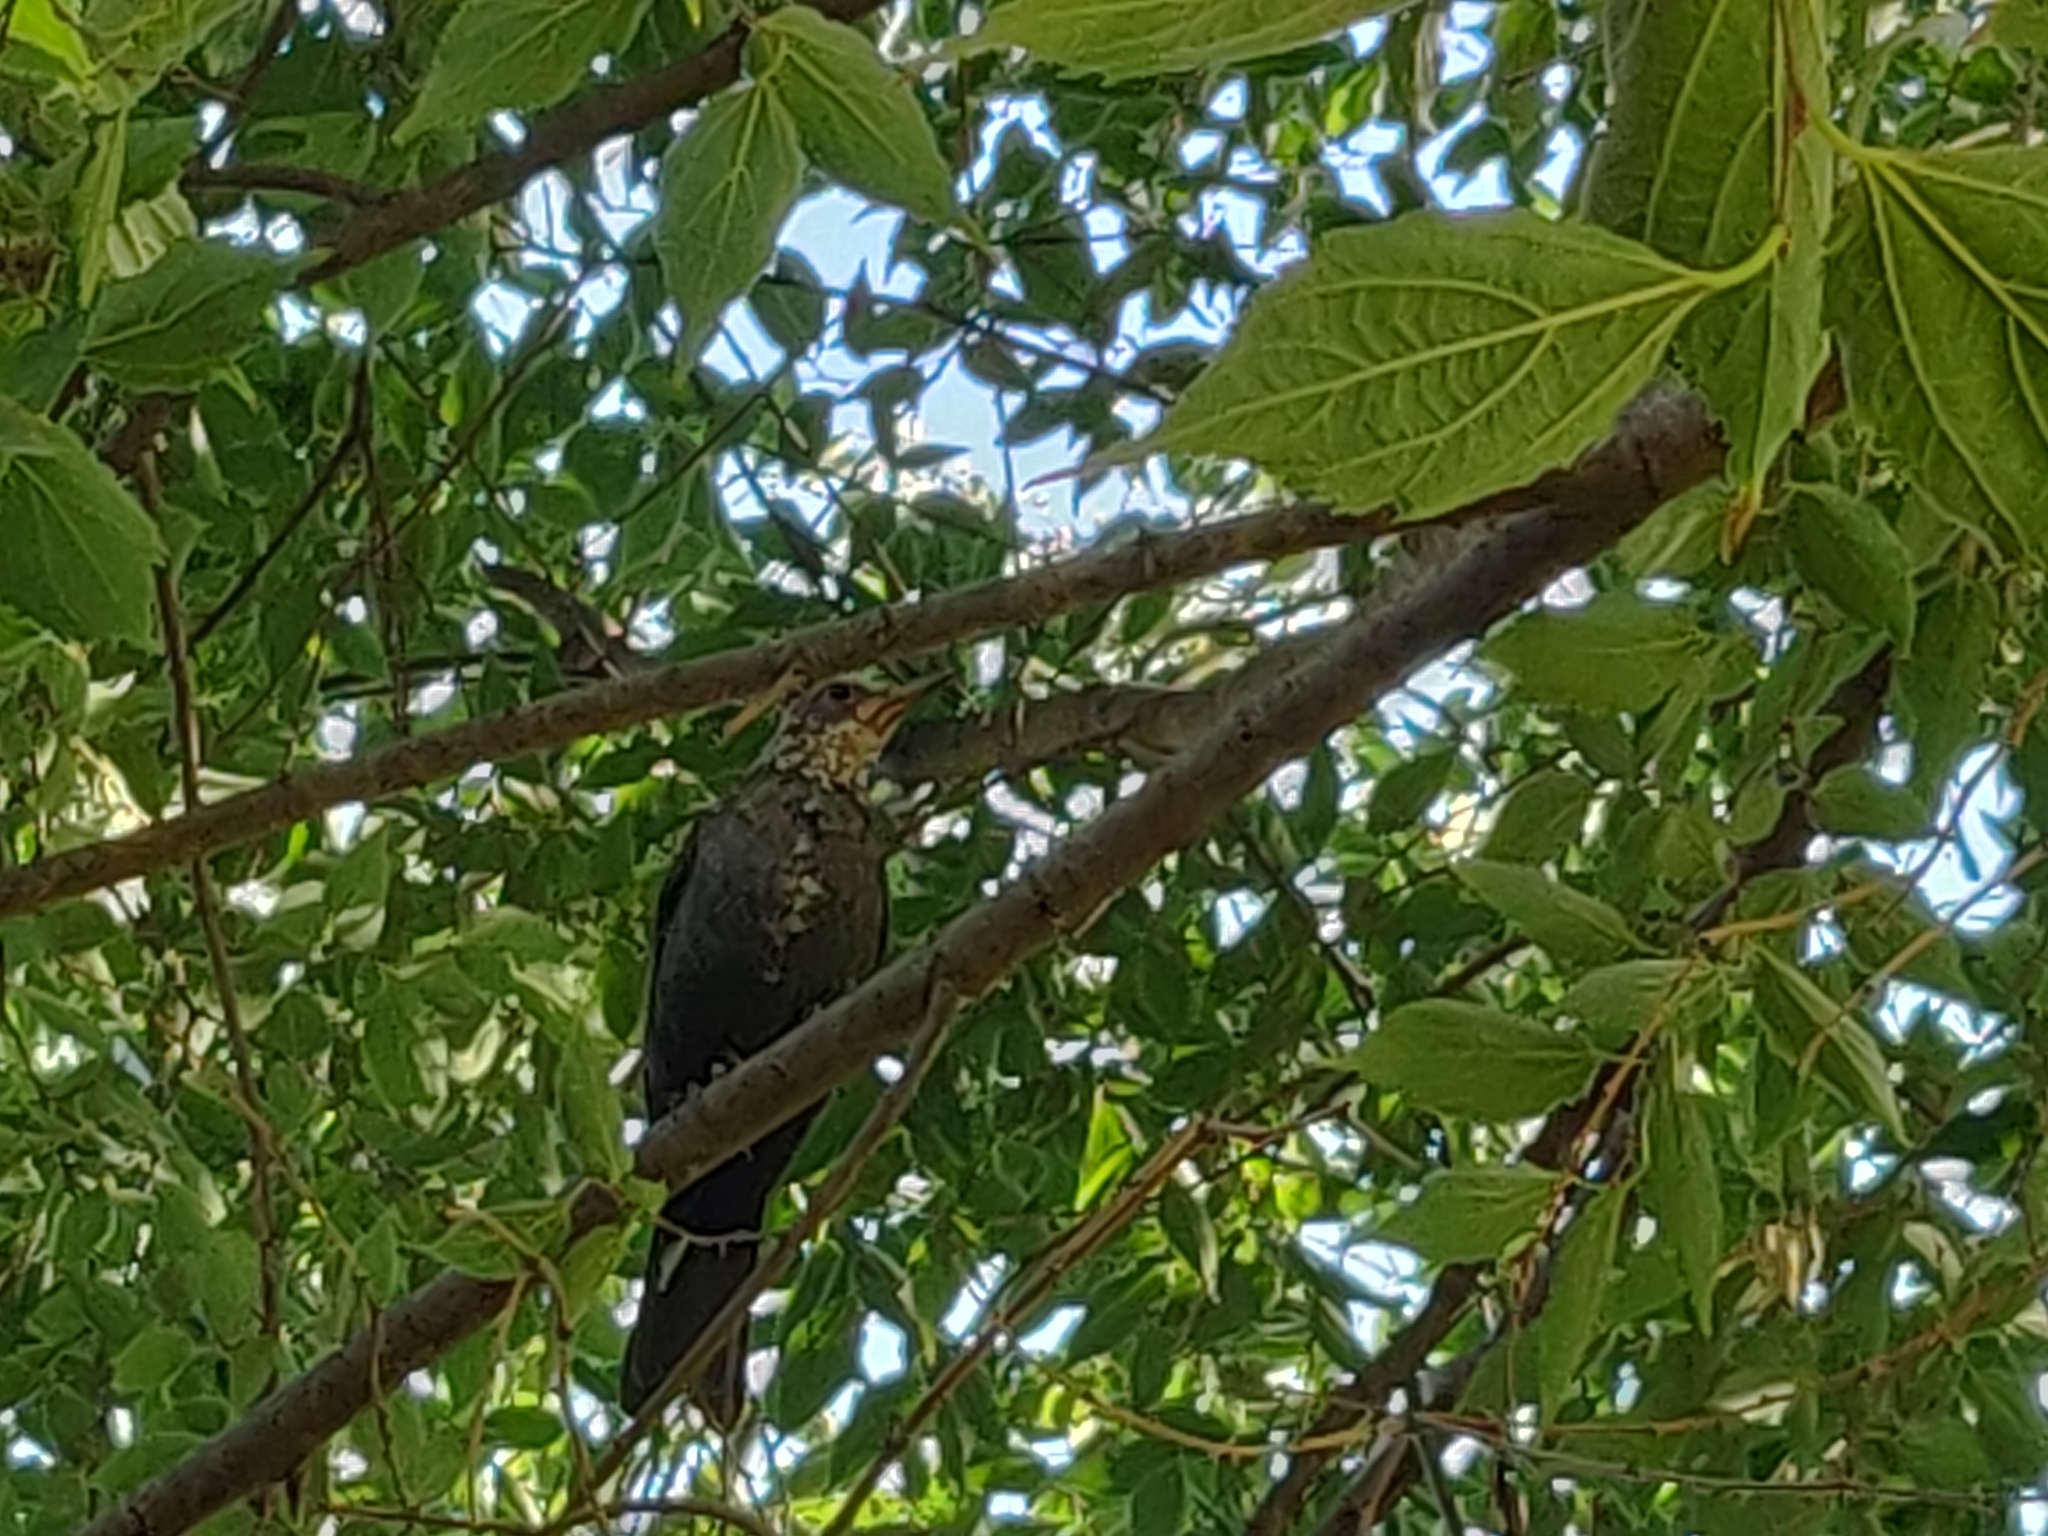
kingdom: Animalia
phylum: Chordata
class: Aves
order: Passeriformes
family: Turdidae
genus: Turdus
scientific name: Turdus merula
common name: Common blackbird
